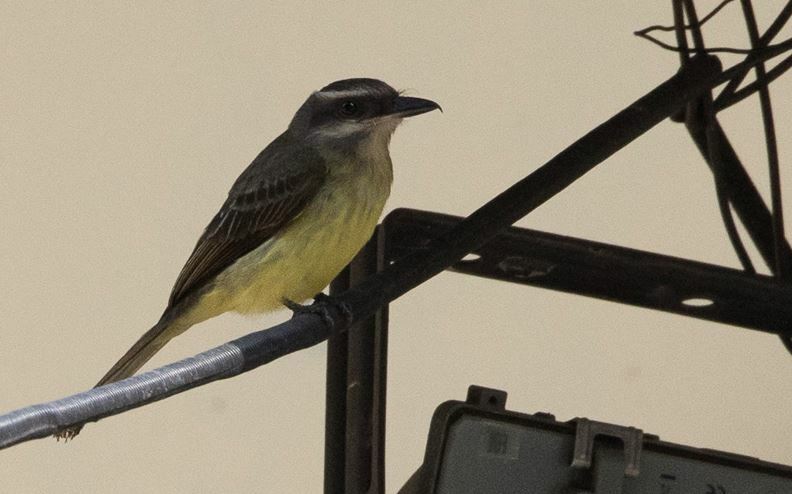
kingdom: Animalia
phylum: Chordata
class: Aves
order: Passeriformes
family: Tyrannidae
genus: Myiodynastes
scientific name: Myiodynastes chrysocephalus
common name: Golden-crowned flycatcher
